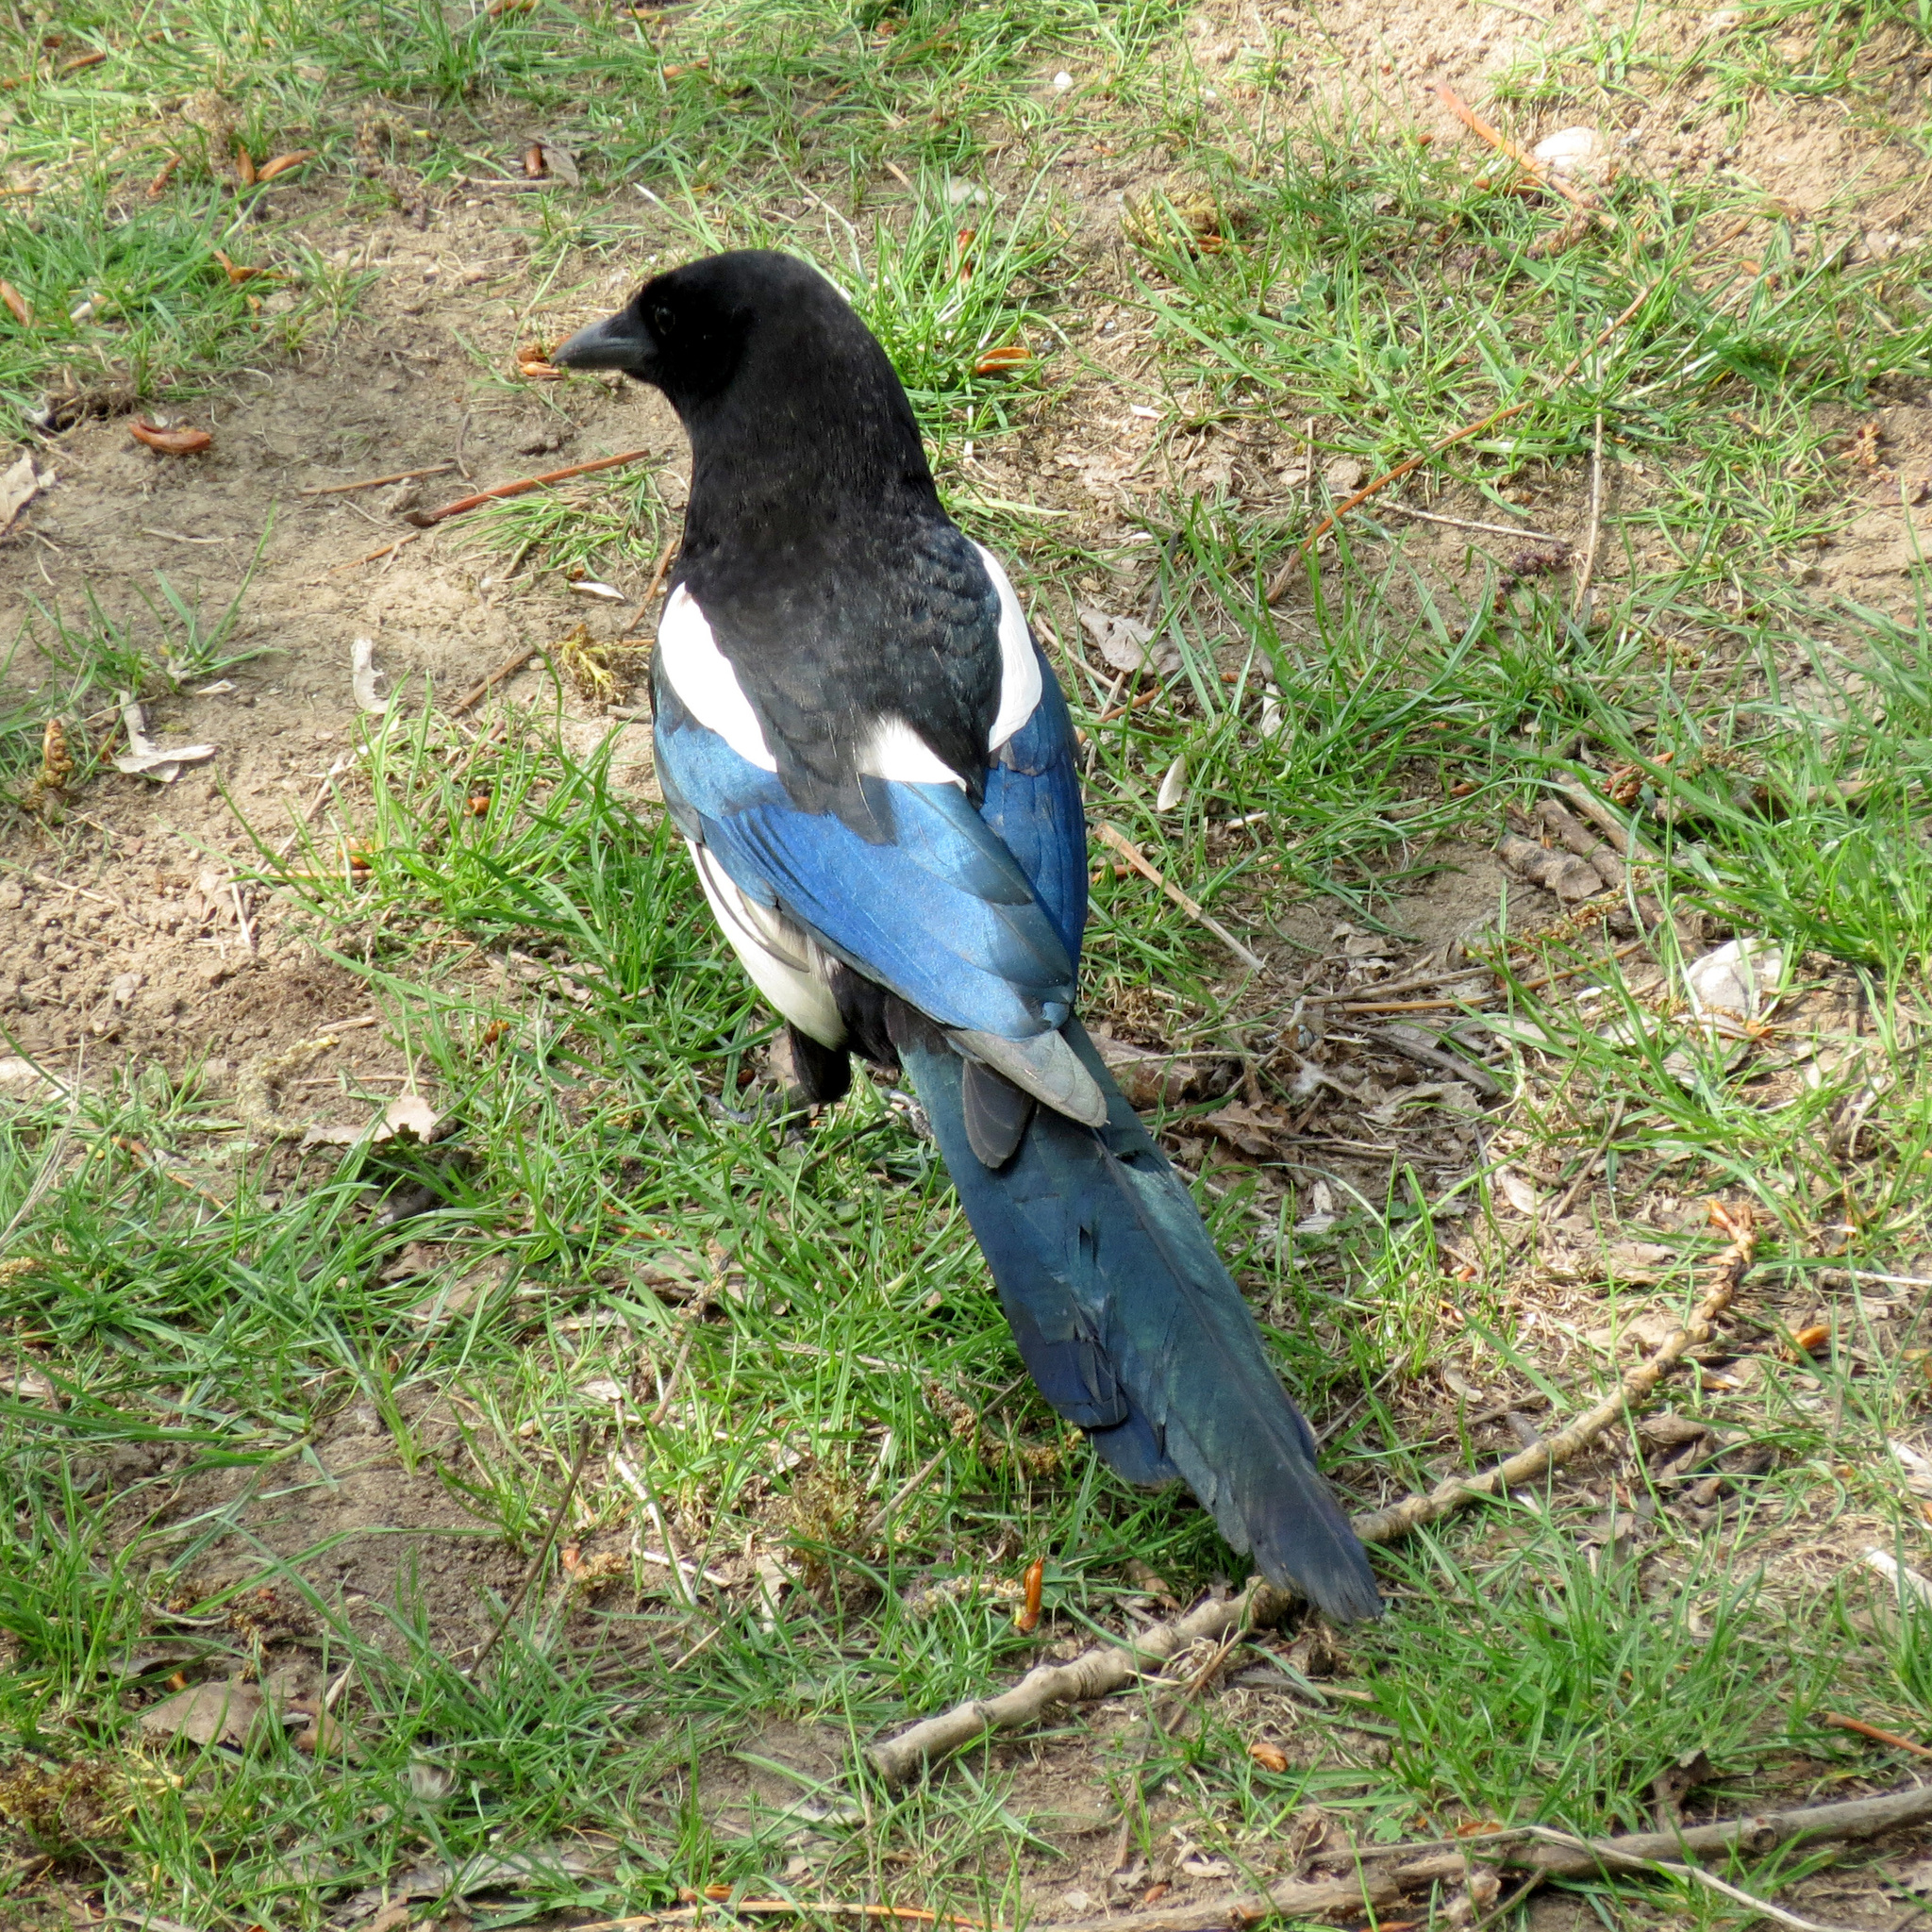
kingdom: Animalia
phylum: Chordata
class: Aves
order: Passeriformes
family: Corvidae
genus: Pica
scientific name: Pica pica
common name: Eurasian magpie
